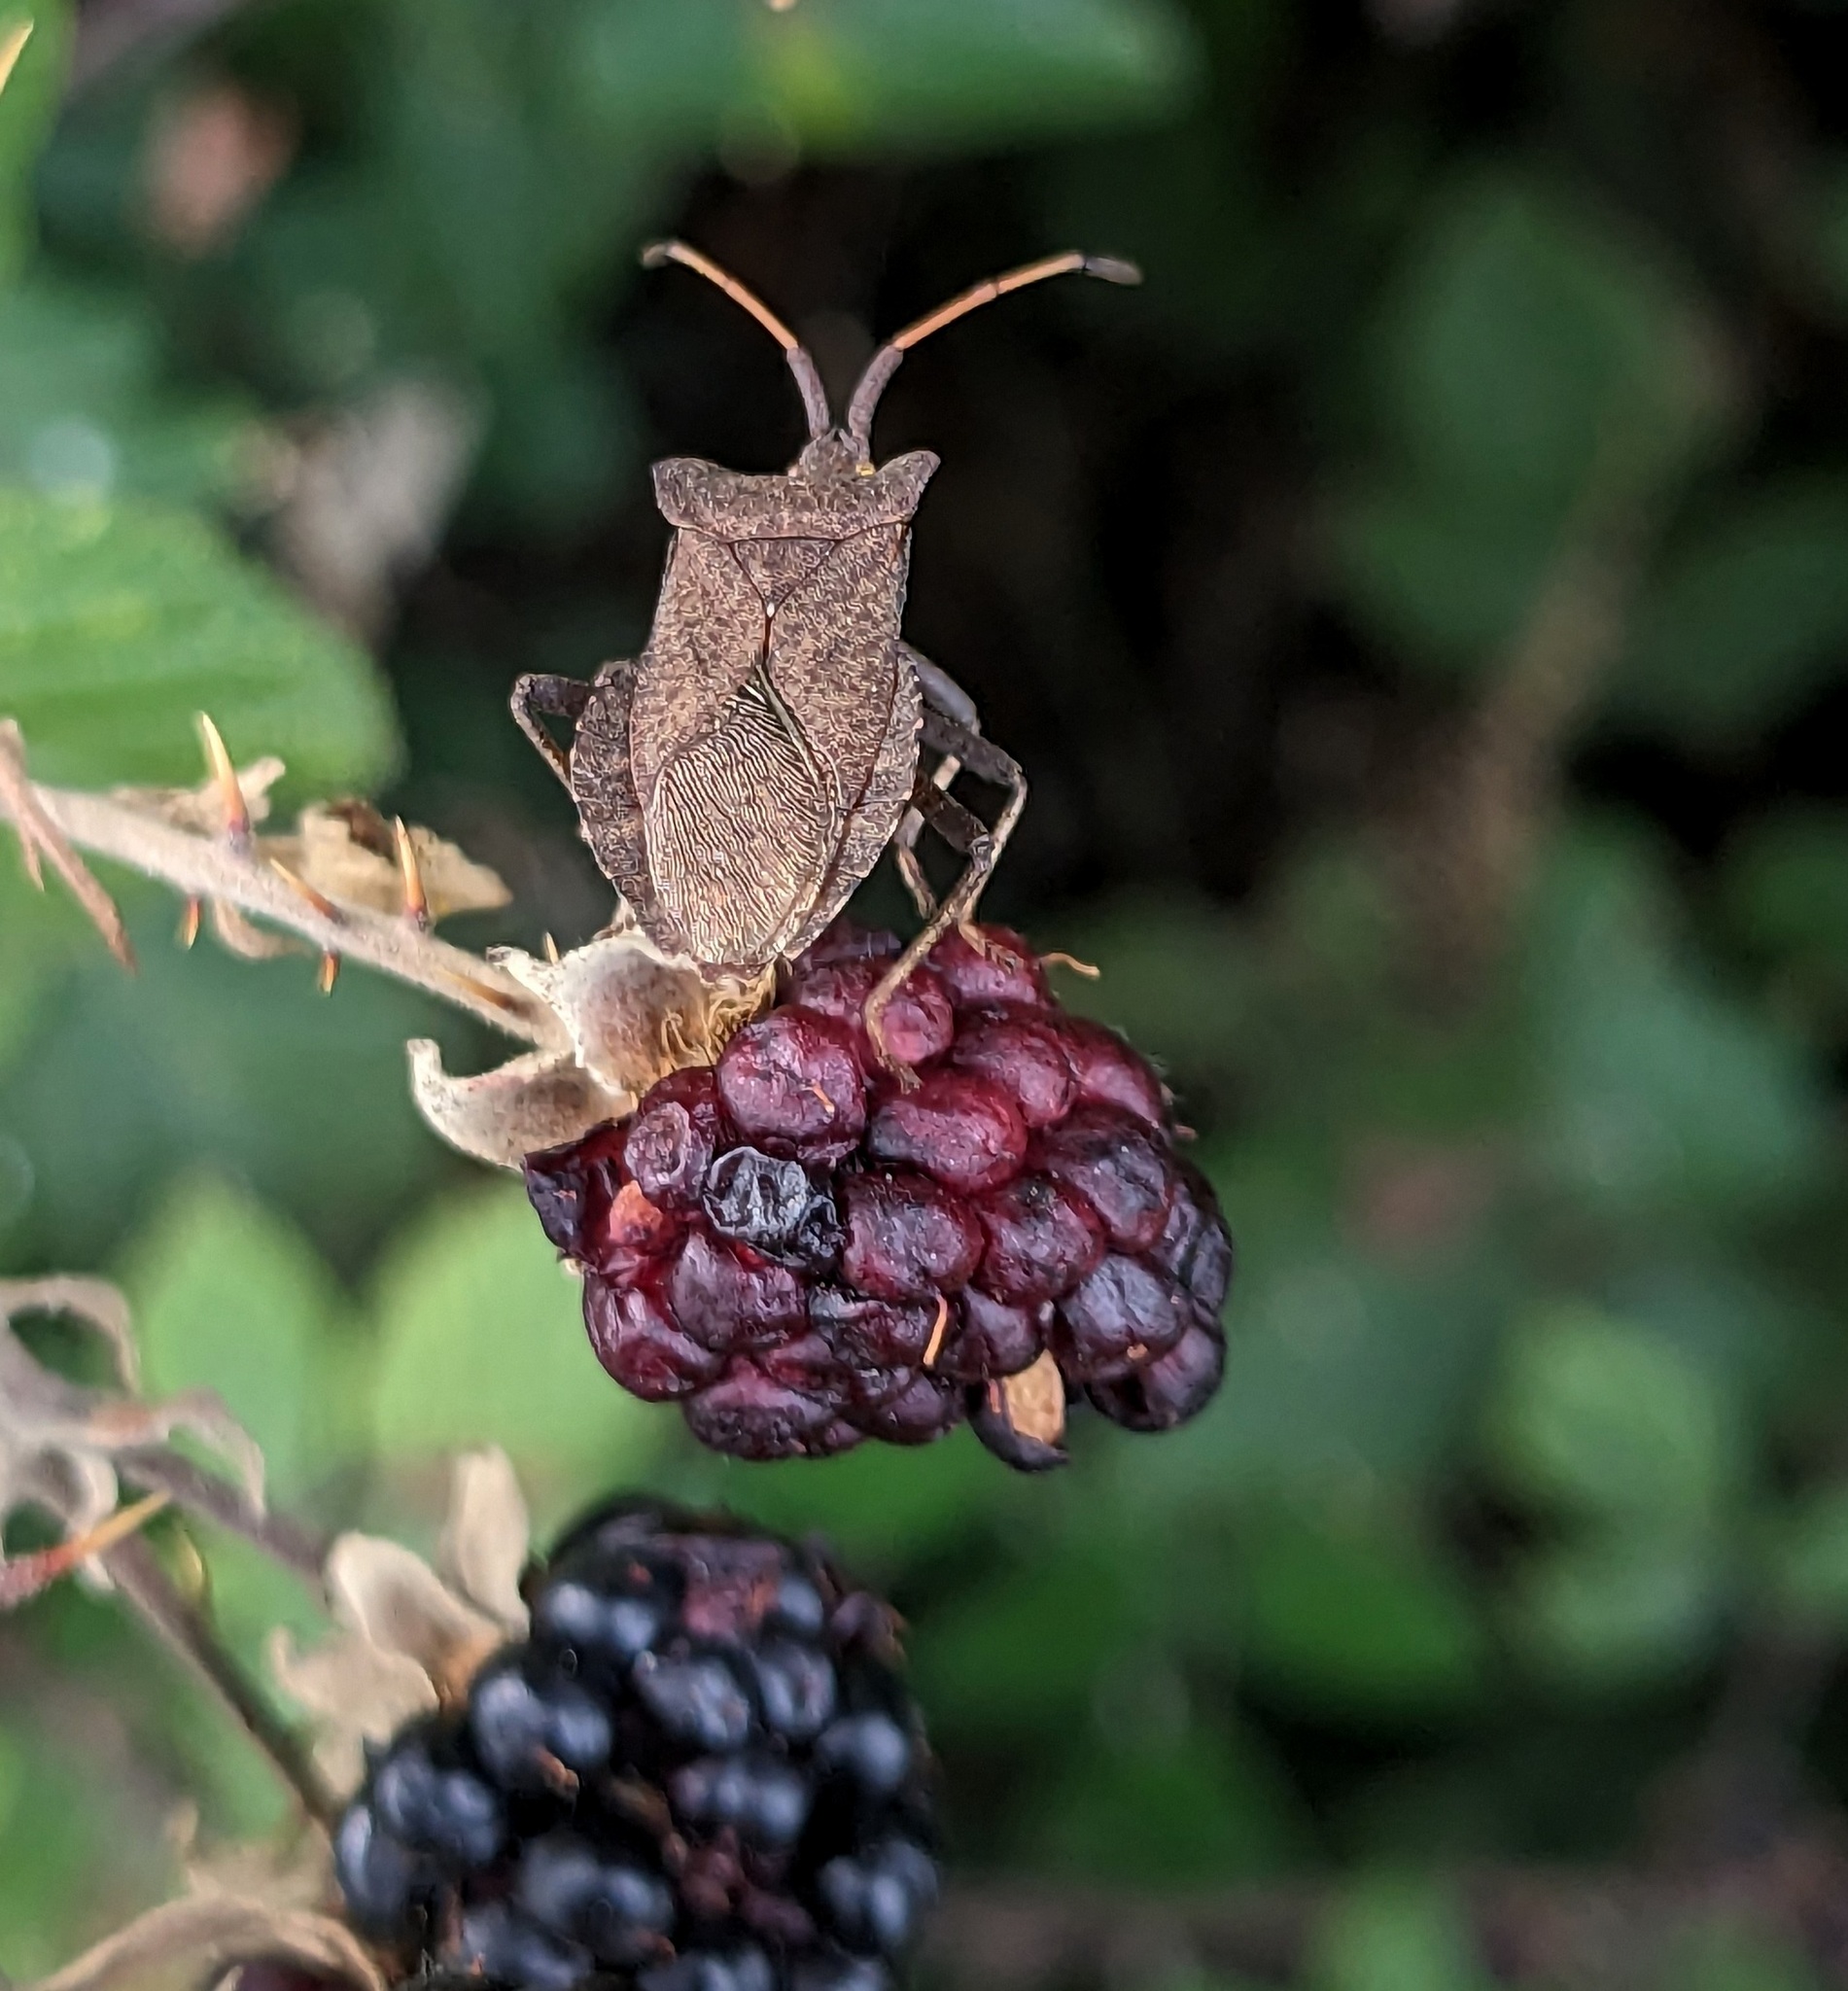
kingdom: Animalia
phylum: Arthropoda
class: Insecta
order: Hemiptera
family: Coreidae
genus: Coreus
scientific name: Coreus marginatus
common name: Dock bug
